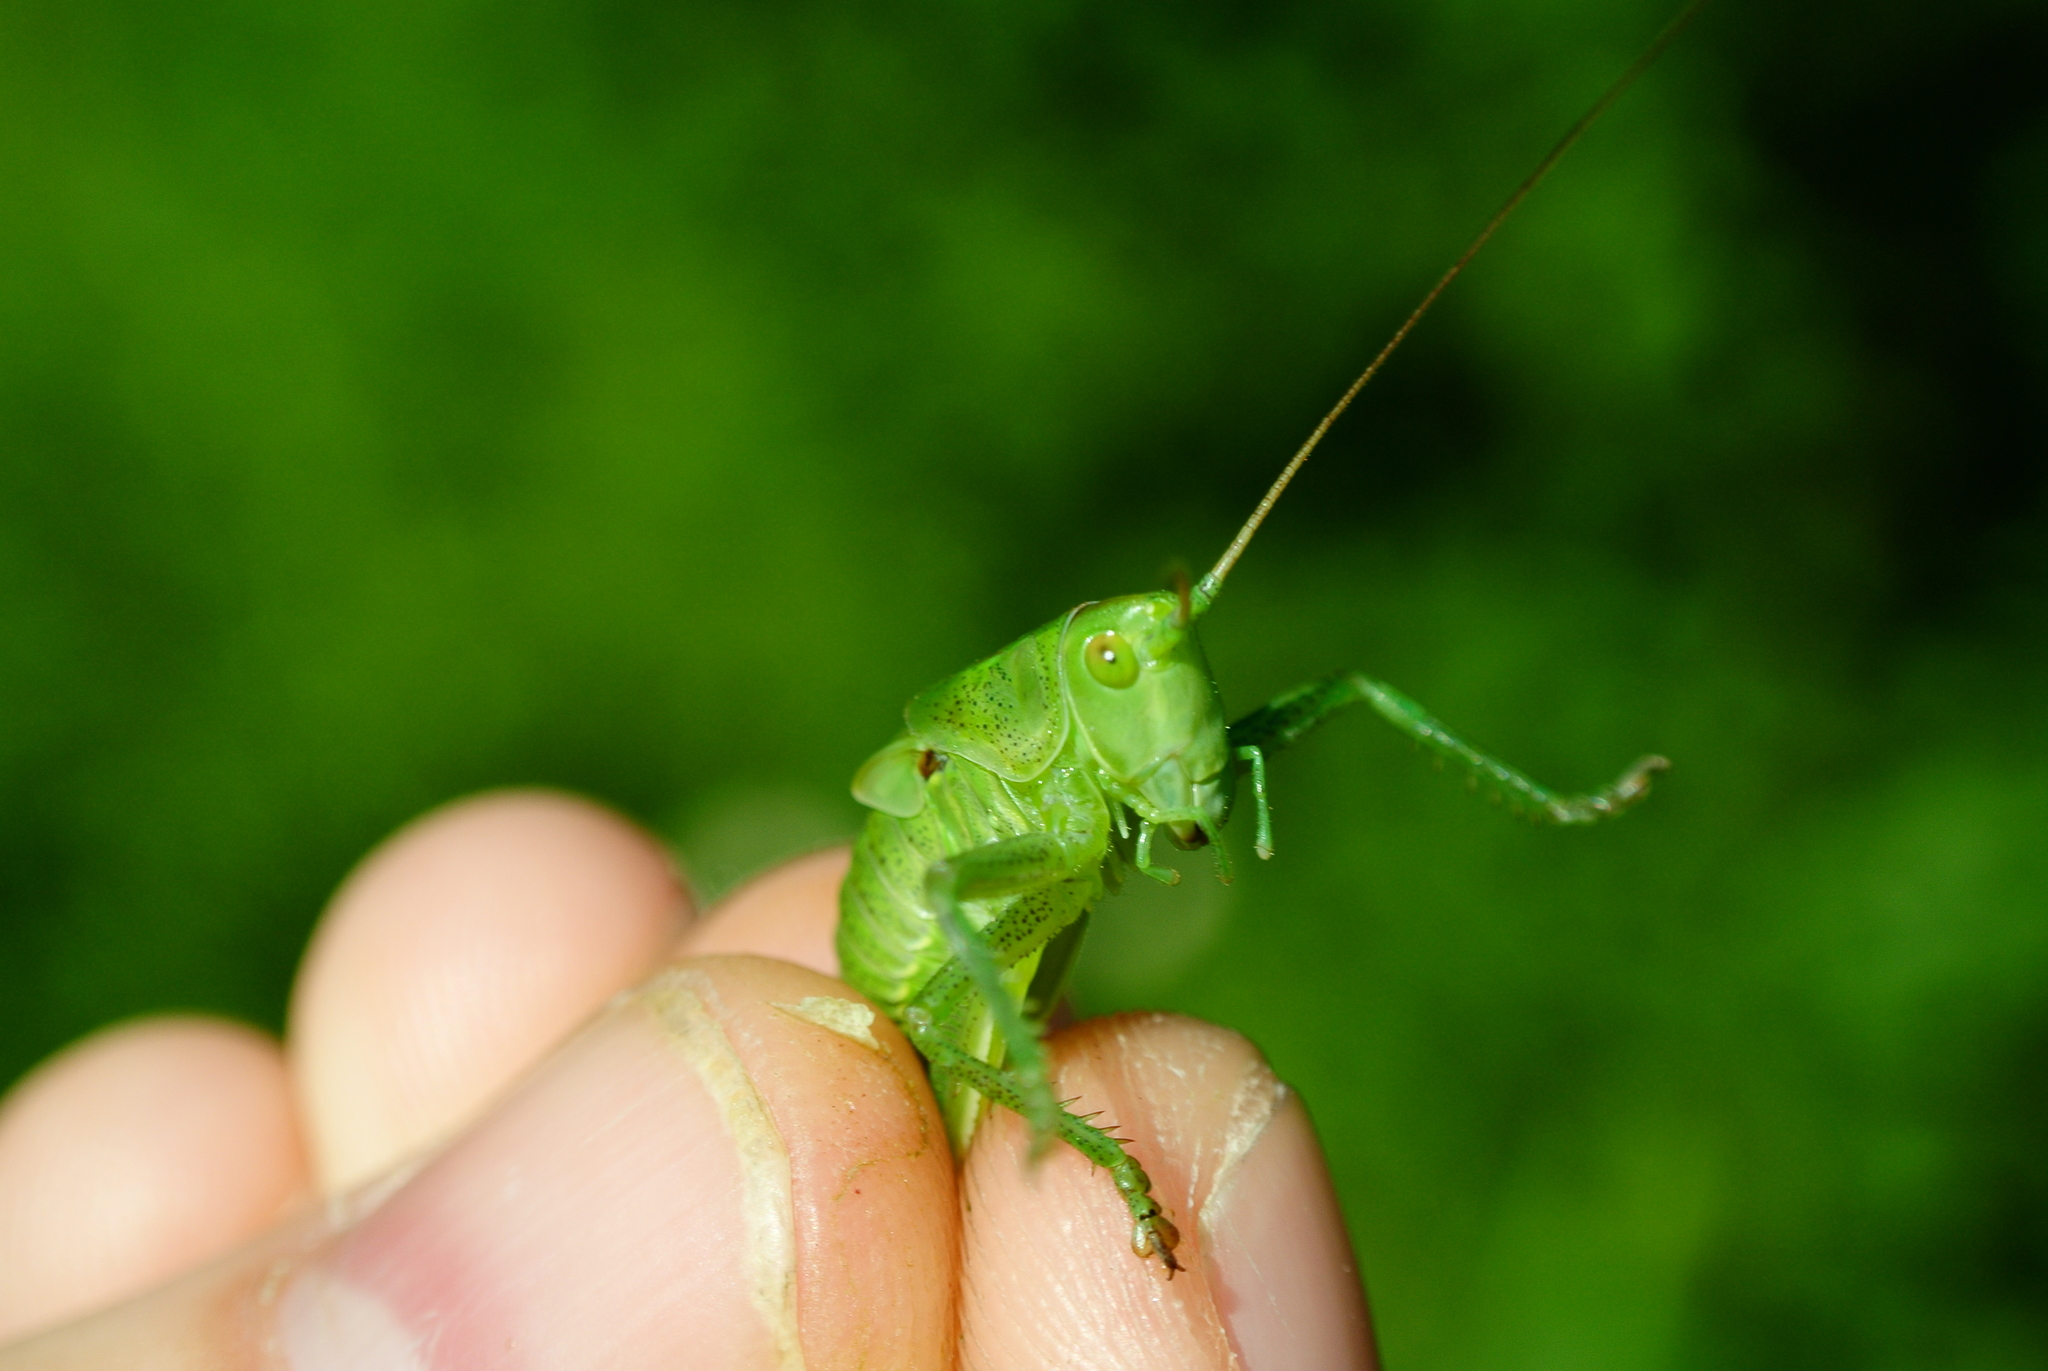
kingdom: Animalia
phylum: Arthropoda
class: Insecta
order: Orthoptera
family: Tettigoniidae
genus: Tettigonia
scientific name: Tettigonia viridissima
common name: Great green bush-cricket
